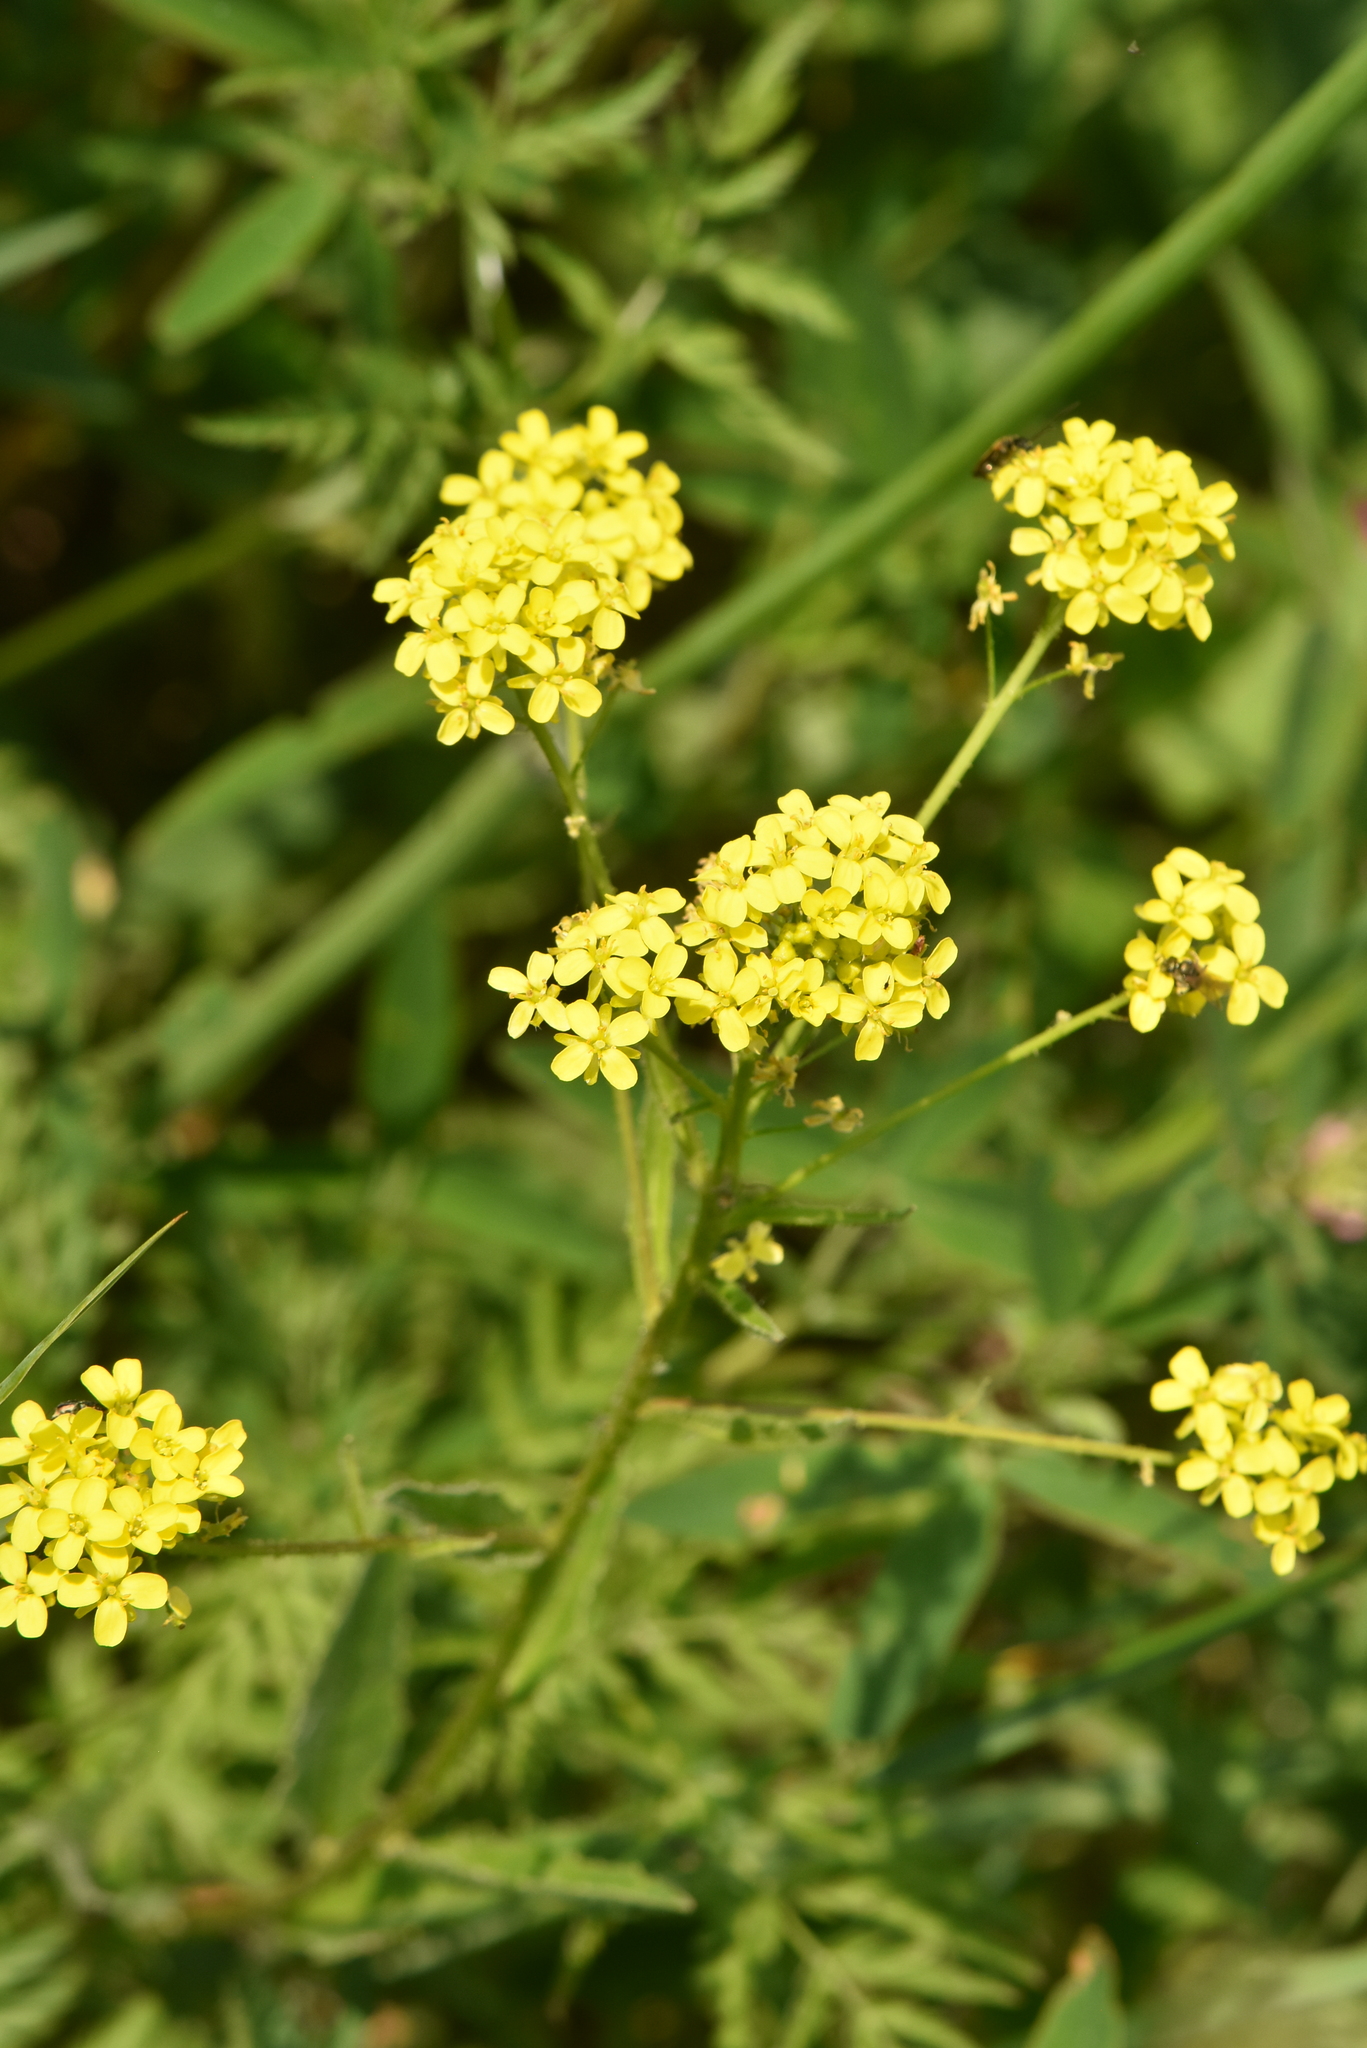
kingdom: Plantae
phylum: Tracheophyta
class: Magnoliopsida
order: Brassicales
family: Brassicaceae
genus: Bunias
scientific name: Bunias orientalis
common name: Warty-cabbage
